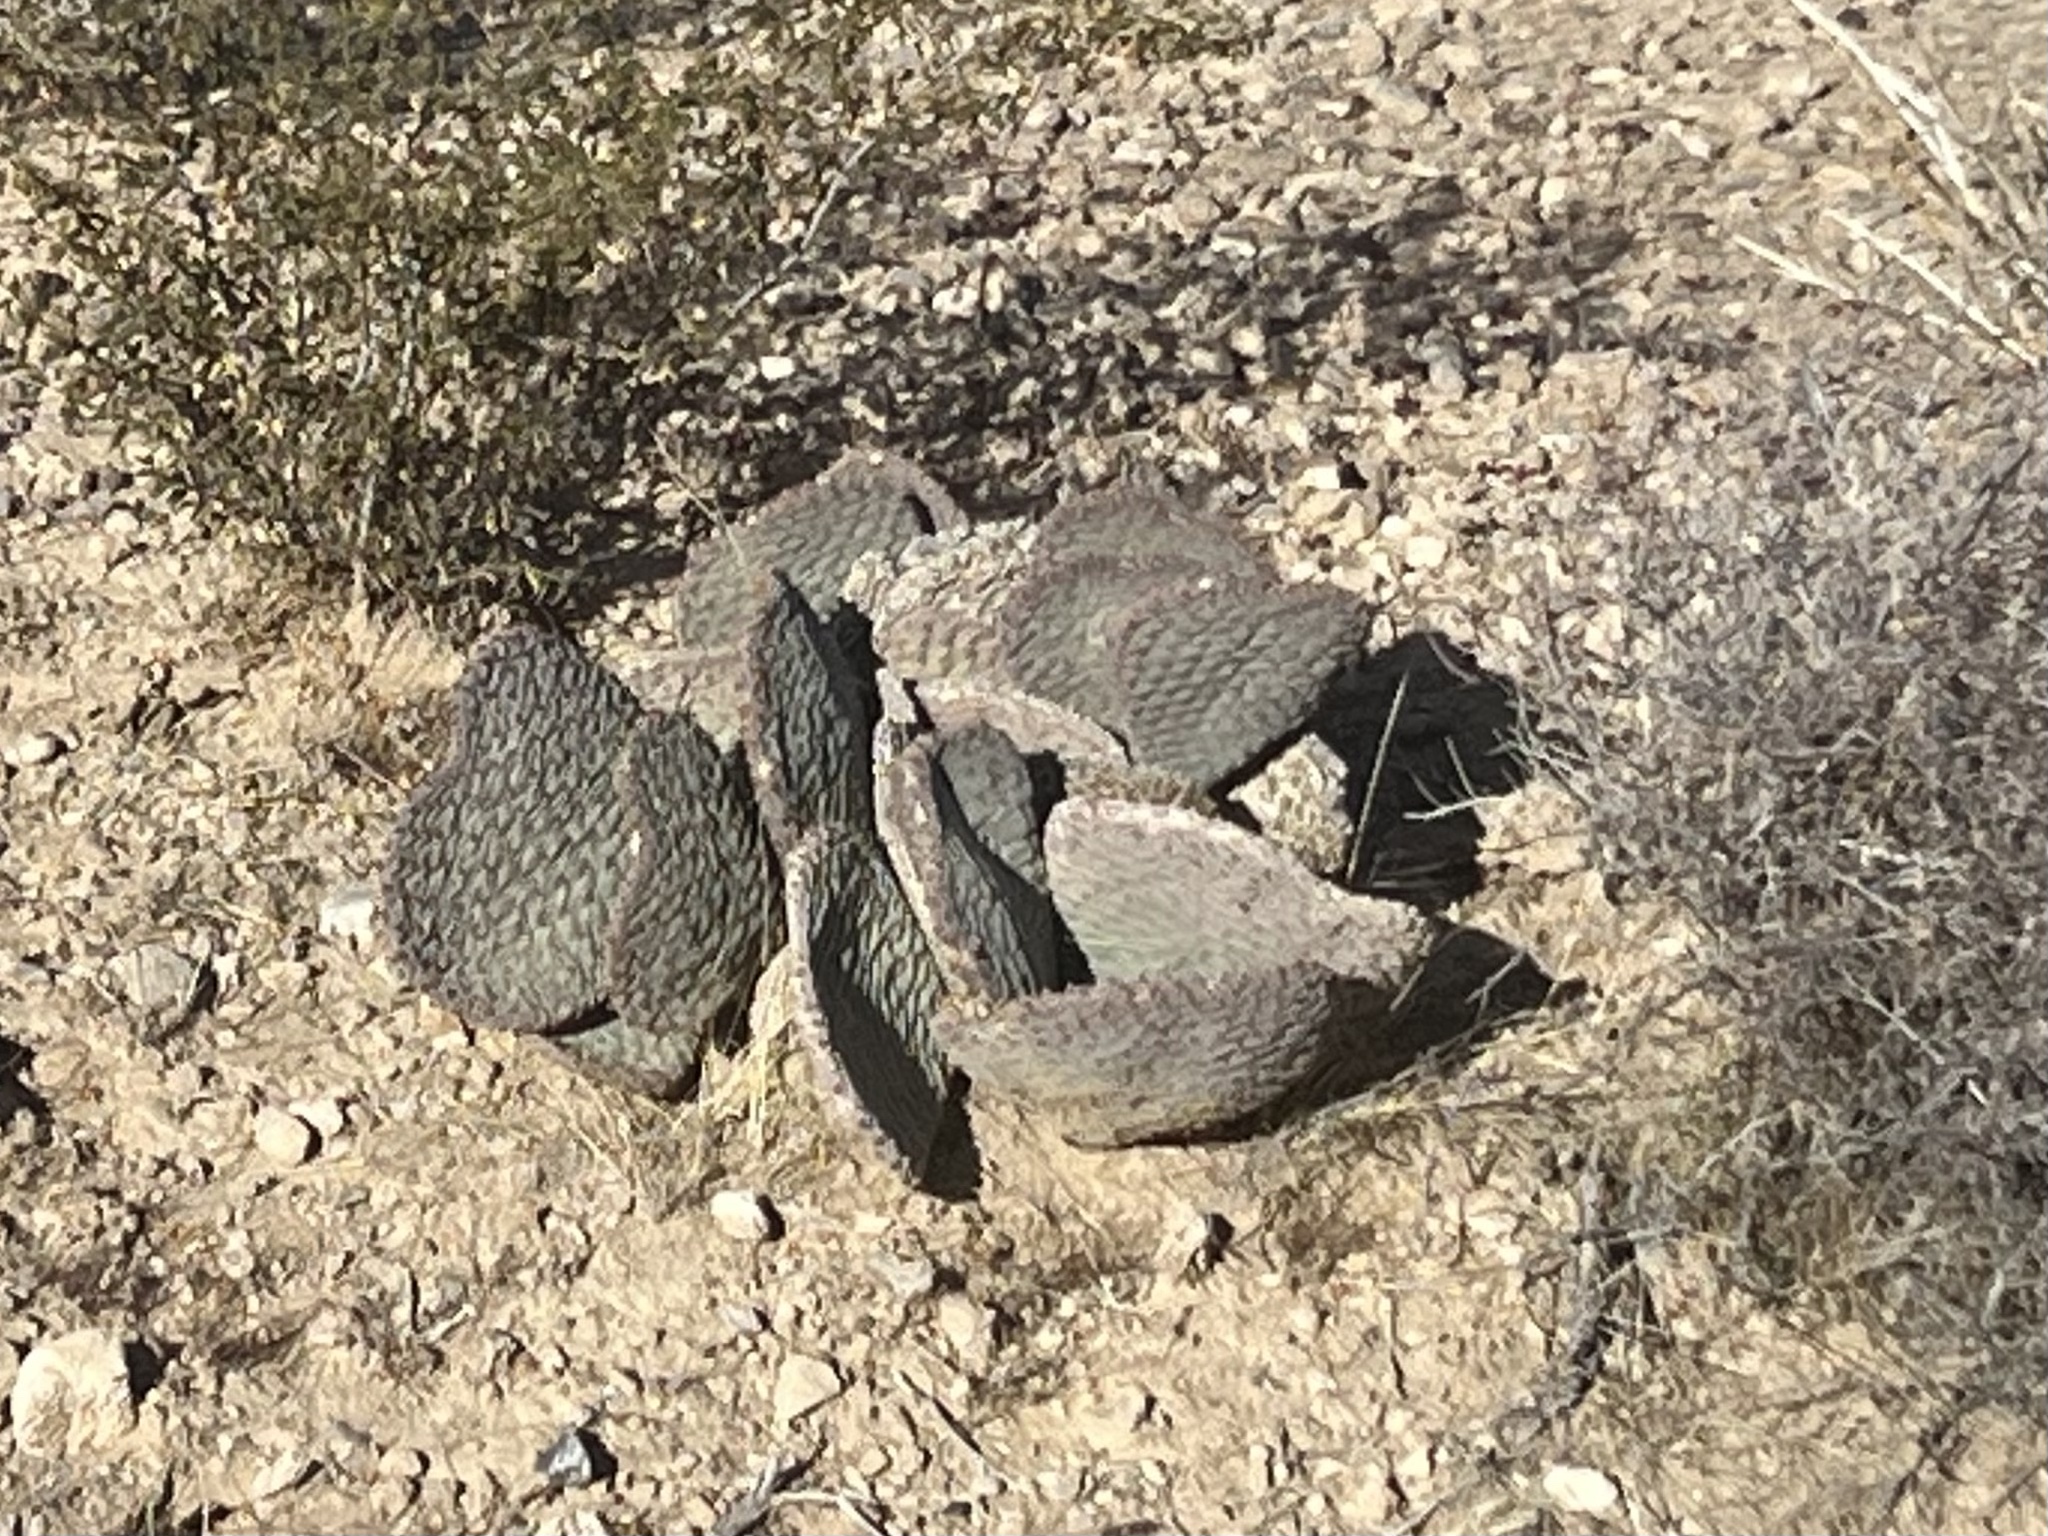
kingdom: Plantae
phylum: Tracheophyta
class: Magnoliopsida
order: Caryophyllales
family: Cactaceae
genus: Opuntia
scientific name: Opuntia basilaris
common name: Beavertail prickly-pear
